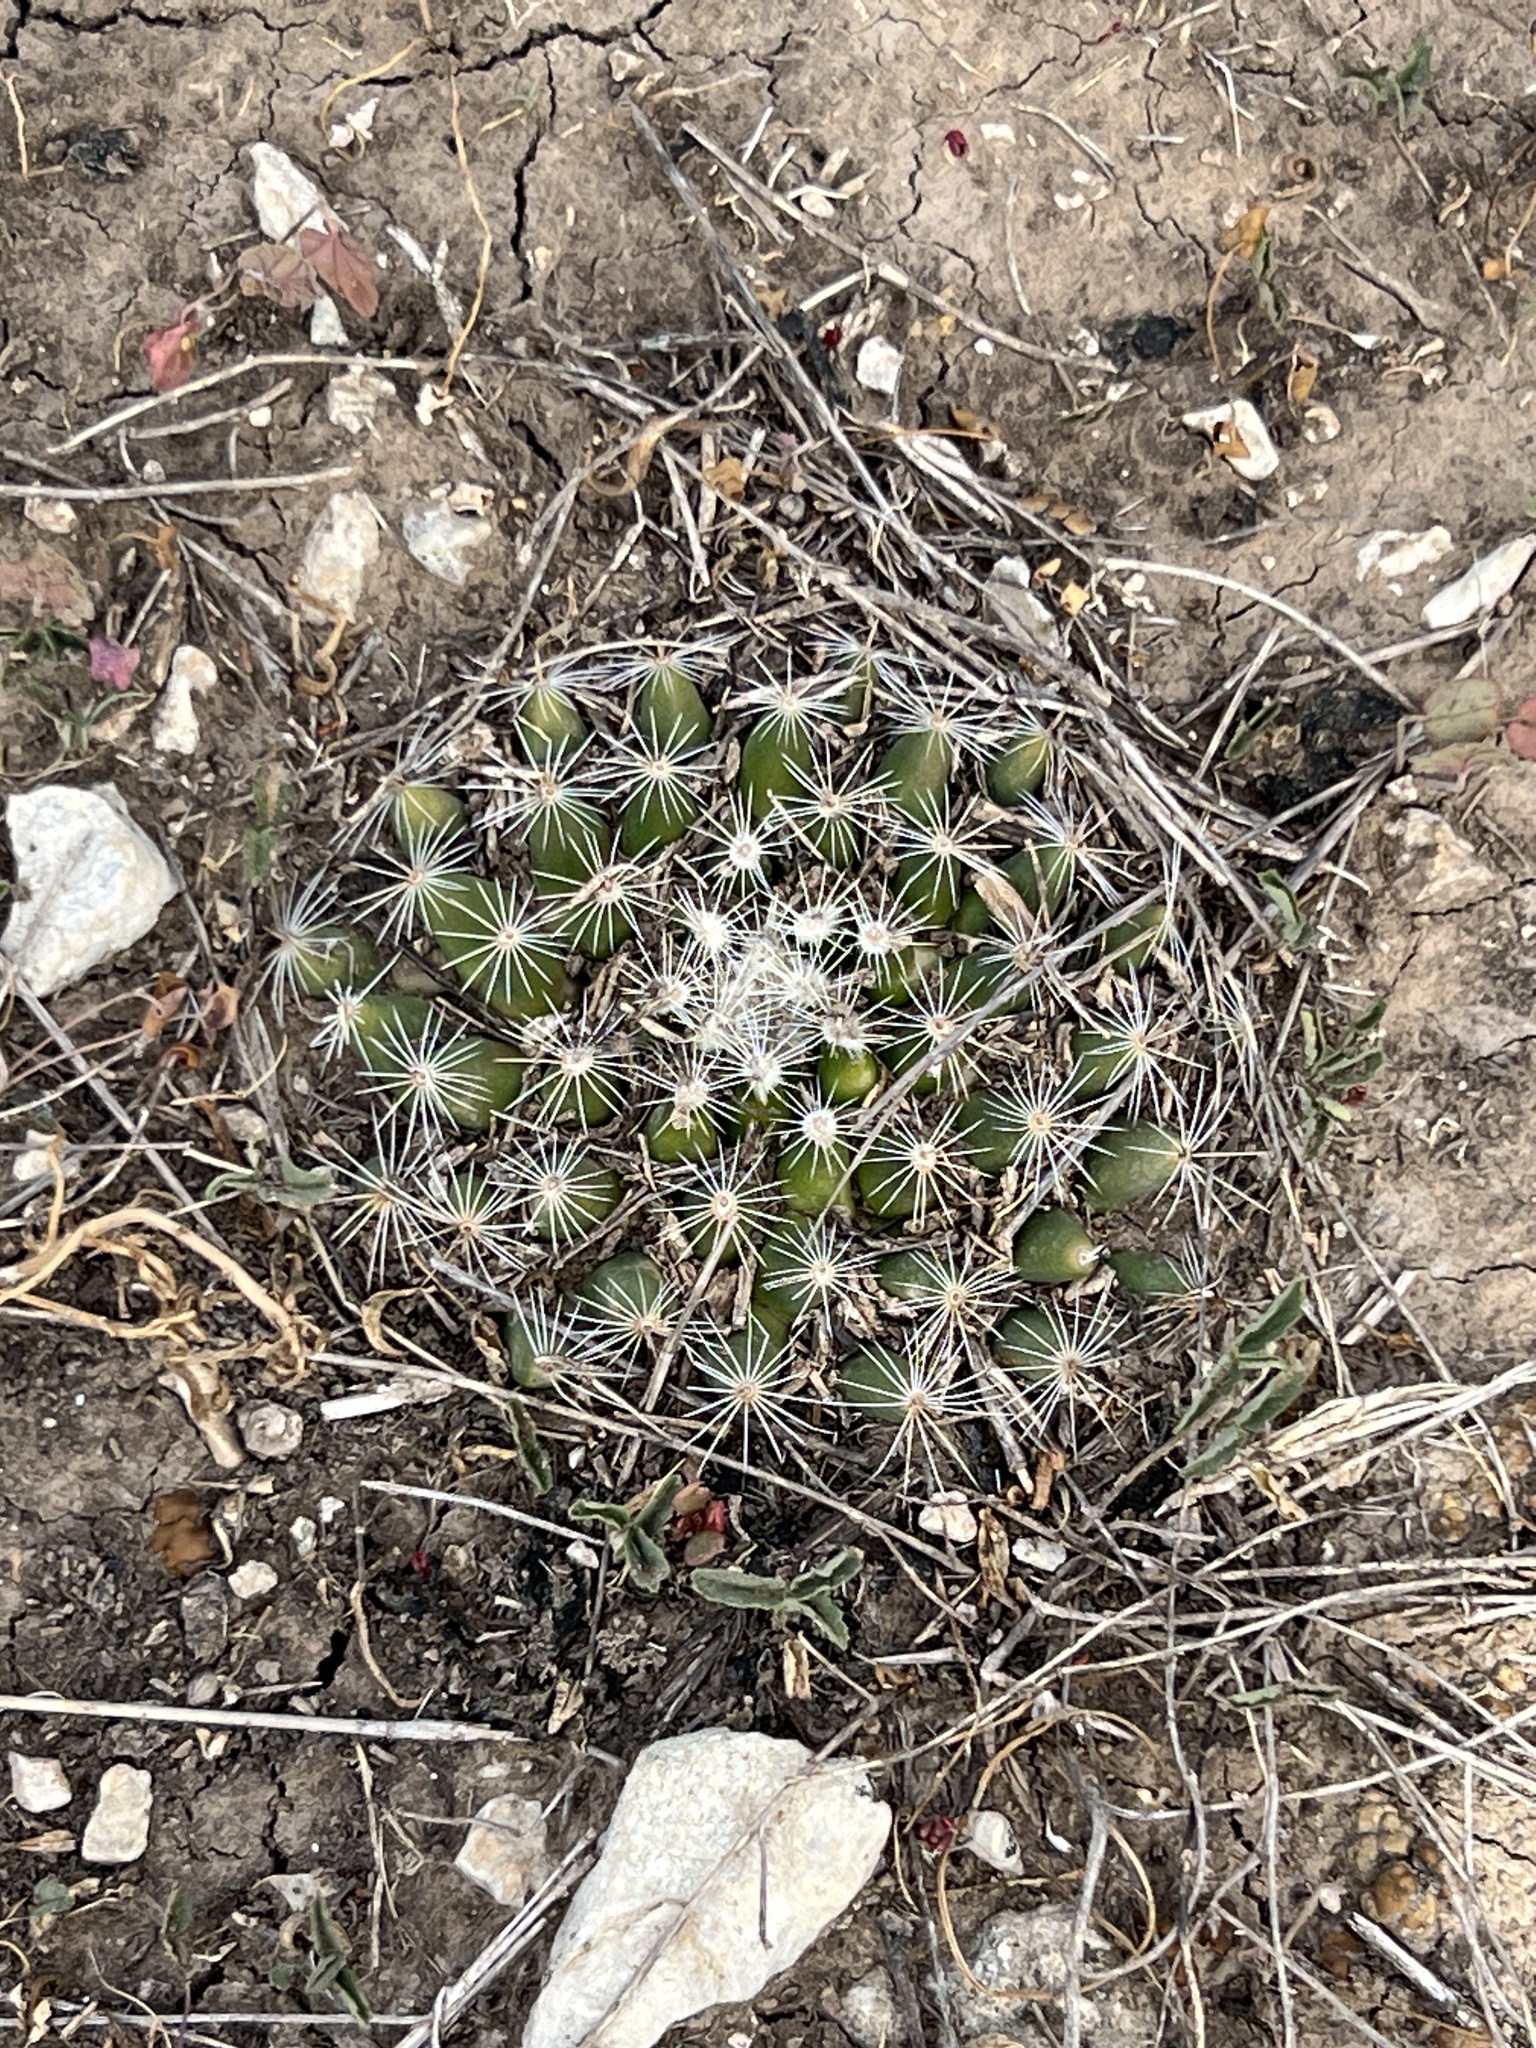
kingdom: Plantae
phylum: Tracheophyta
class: Magnoliopsida
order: Caryophyllales
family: Cactaceae
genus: Mammillaria
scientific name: Mammillaria heyderi
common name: Little nipple cactus
